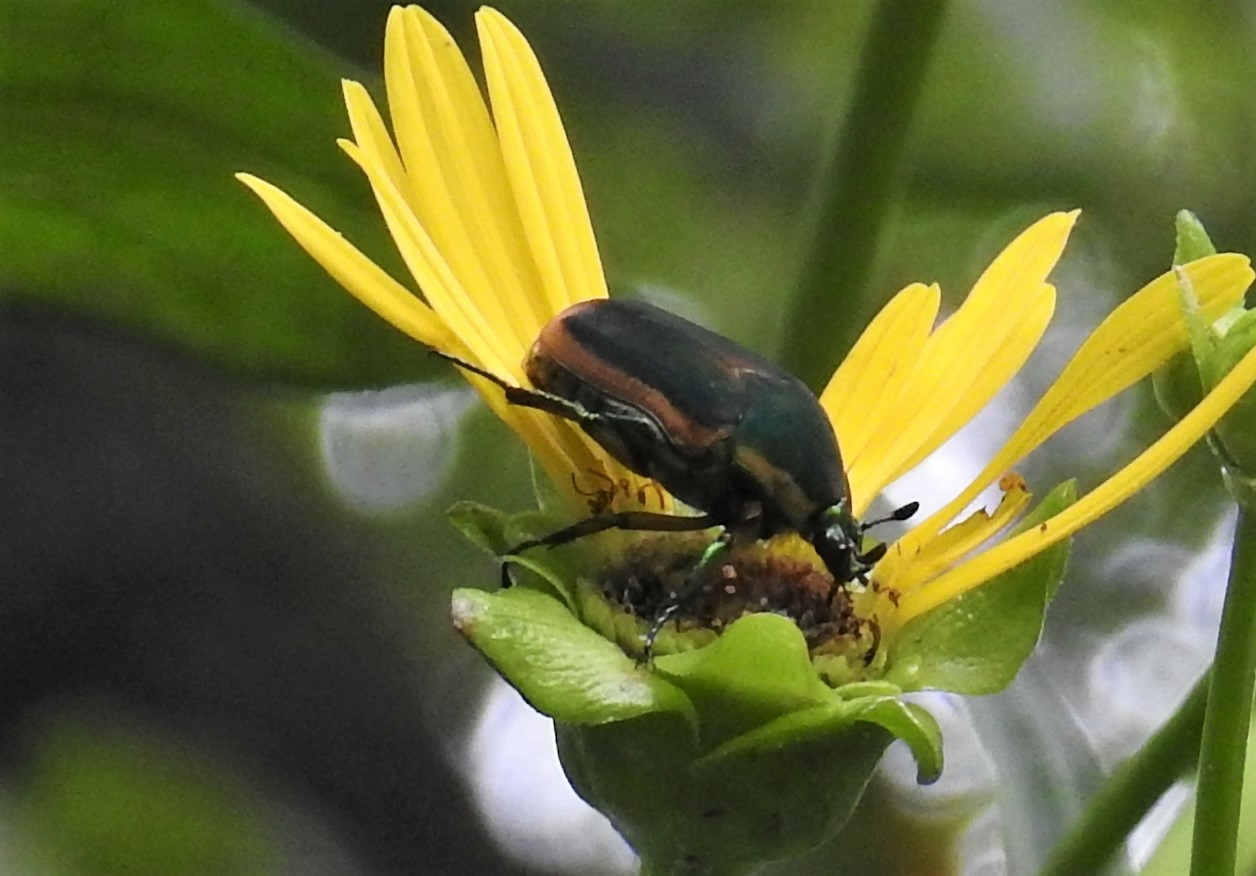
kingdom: Animalia
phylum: Arthropoda
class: Insecta
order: Coleoptera
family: Scarabaeidae
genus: Cotinis
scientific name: Cotinis nitida
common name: Common green june beetle
